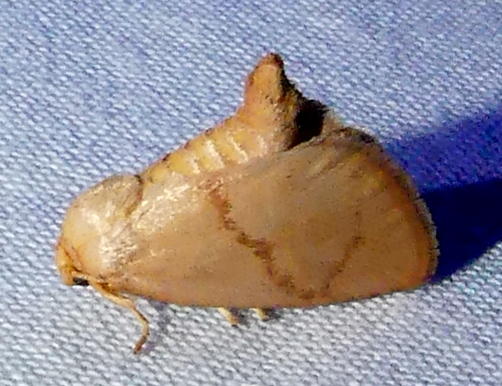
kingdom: Animalia
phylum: Arthropoda
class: Insecta
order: Lepidoptera
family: Limacodidae
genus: Tortricidia
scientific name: Tortricidia flexuosa
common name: Abbreviated button slug moth
